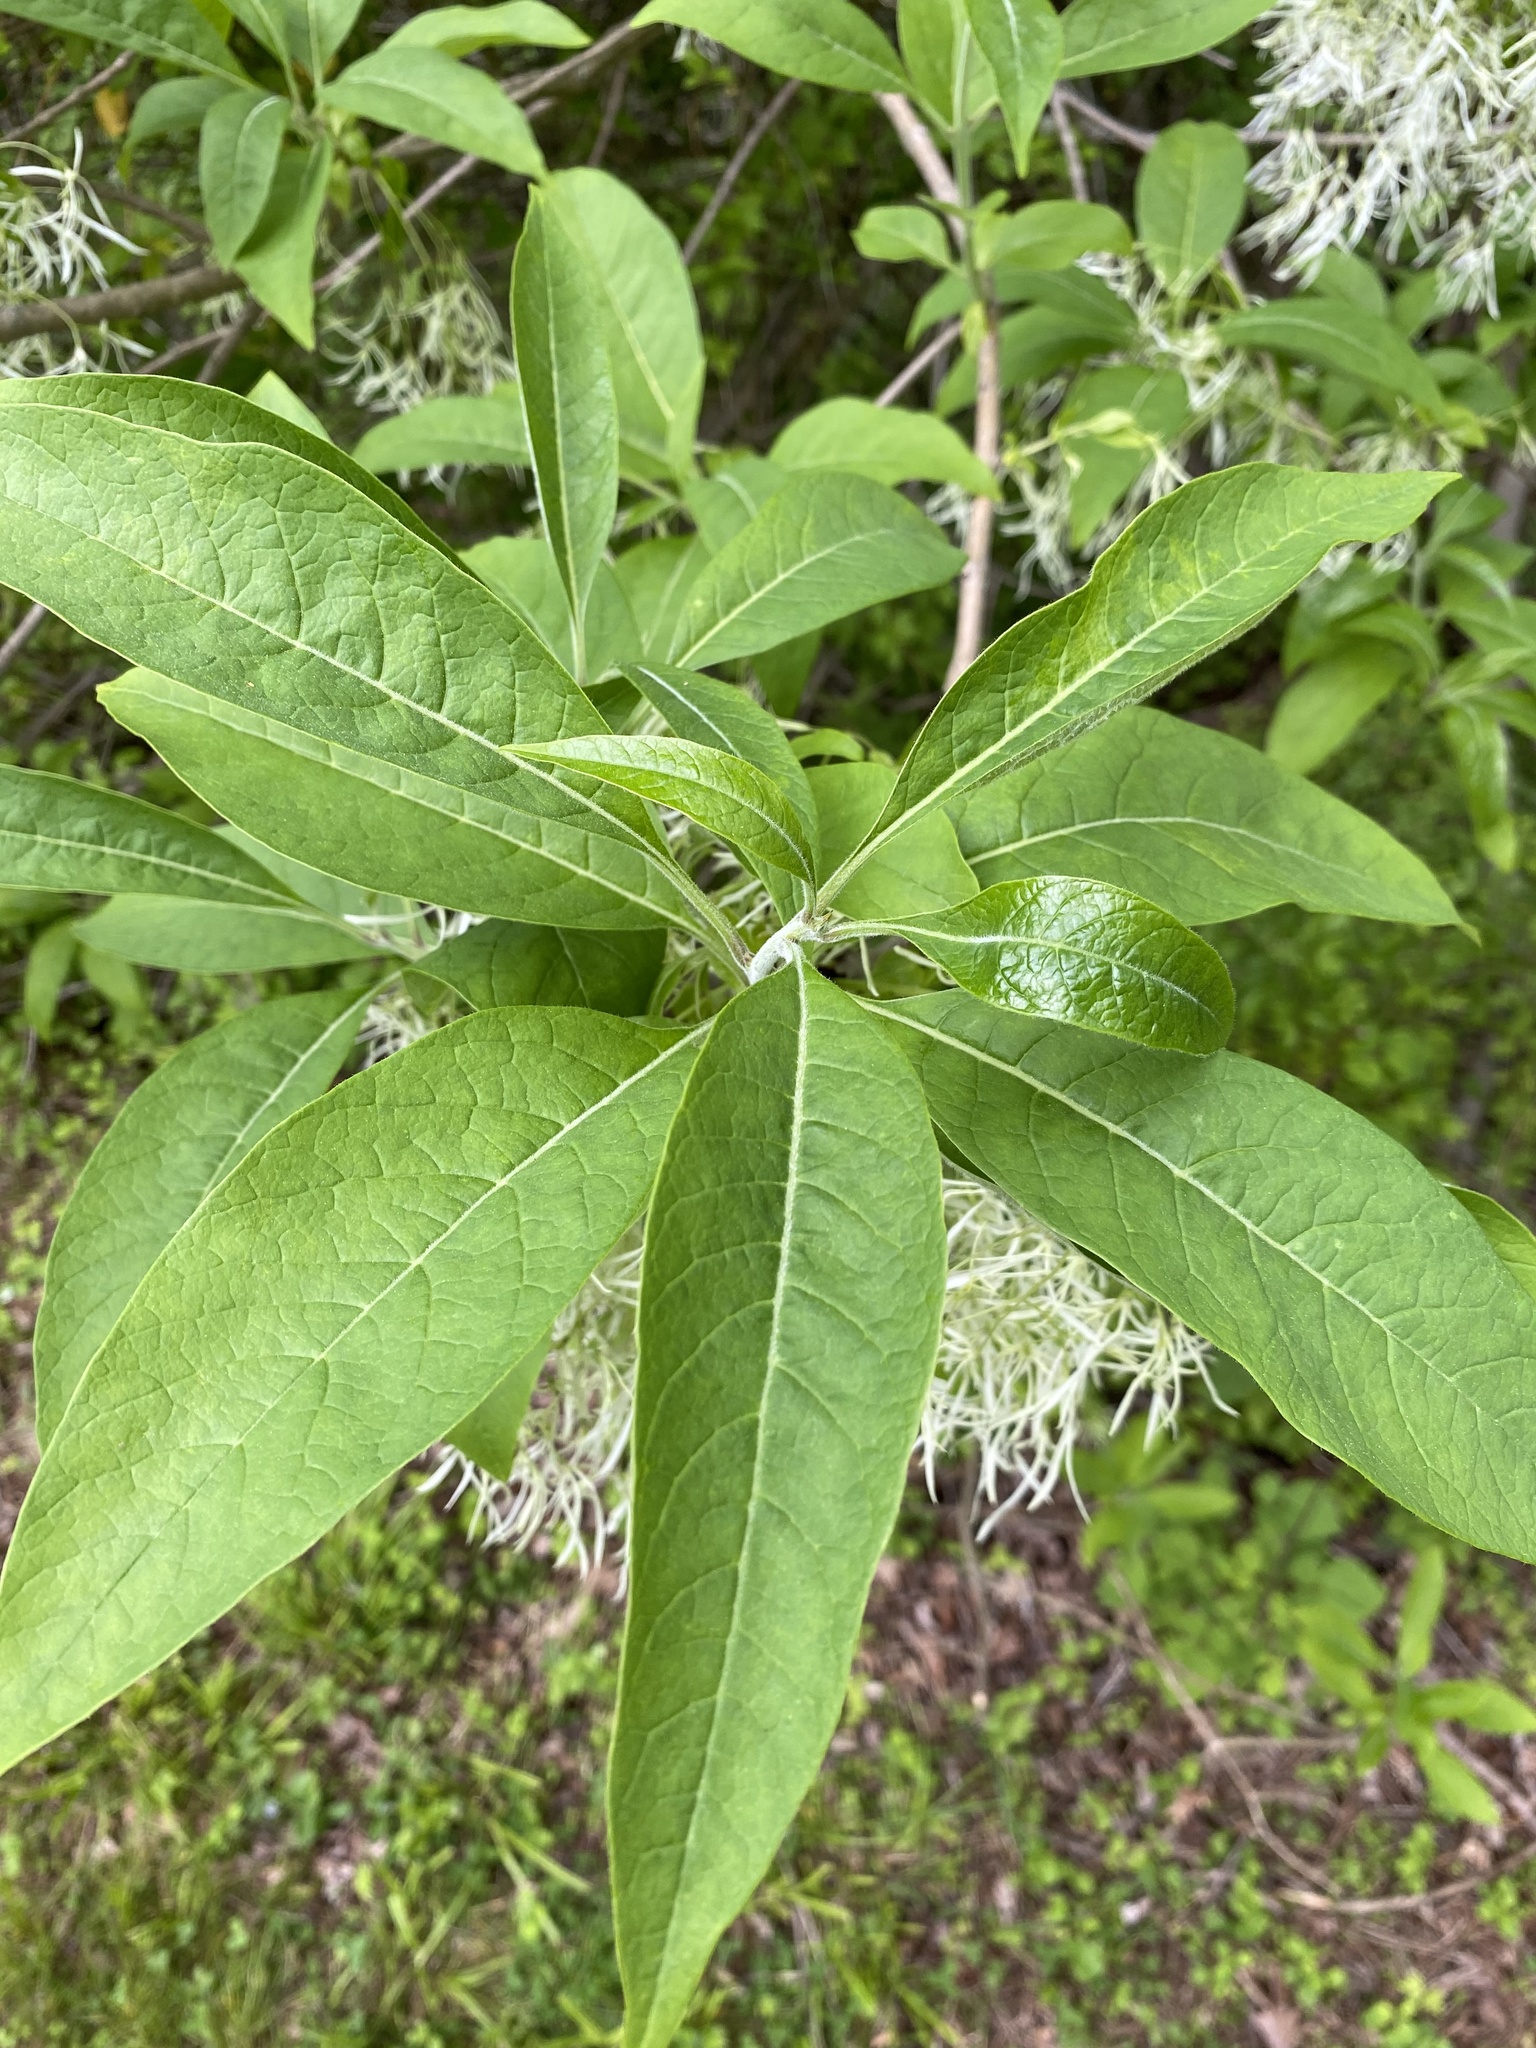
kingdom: Plantae
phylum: Tracheophyta
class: Magnoliopsida
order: Lamiales
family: Oleaceae
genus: Chionanthus
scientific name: Chionanthus virginicus
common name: American fringetree
